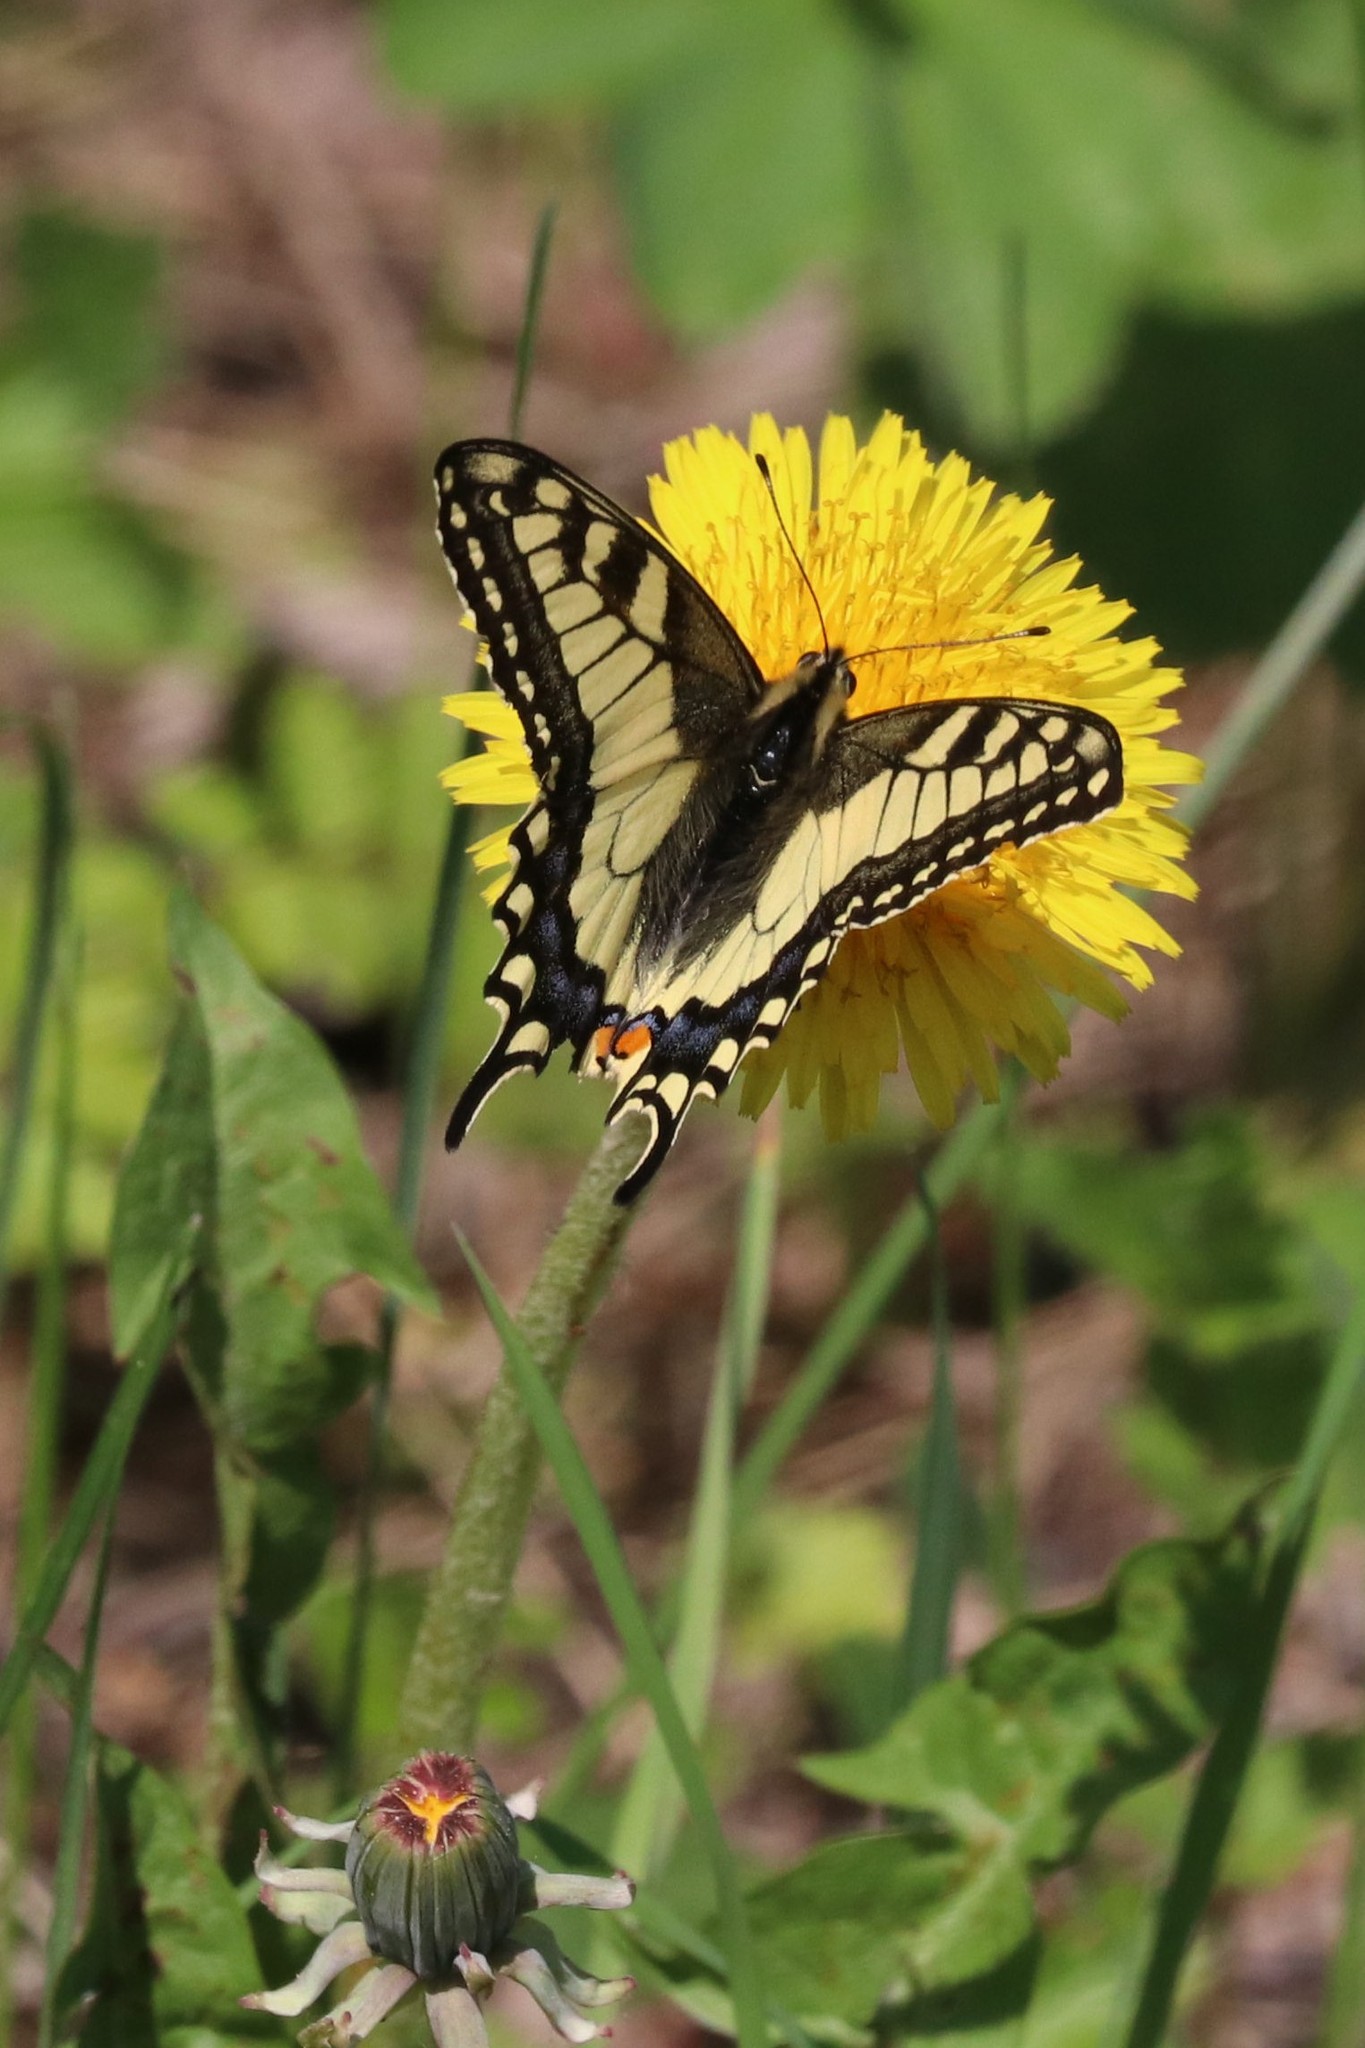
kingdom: Animalia
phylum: Arthropoda
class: Insecta
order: Lepidoptera
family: Papilionidae
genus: Papilio
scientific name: Papilio machaon
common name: Swallowtail
